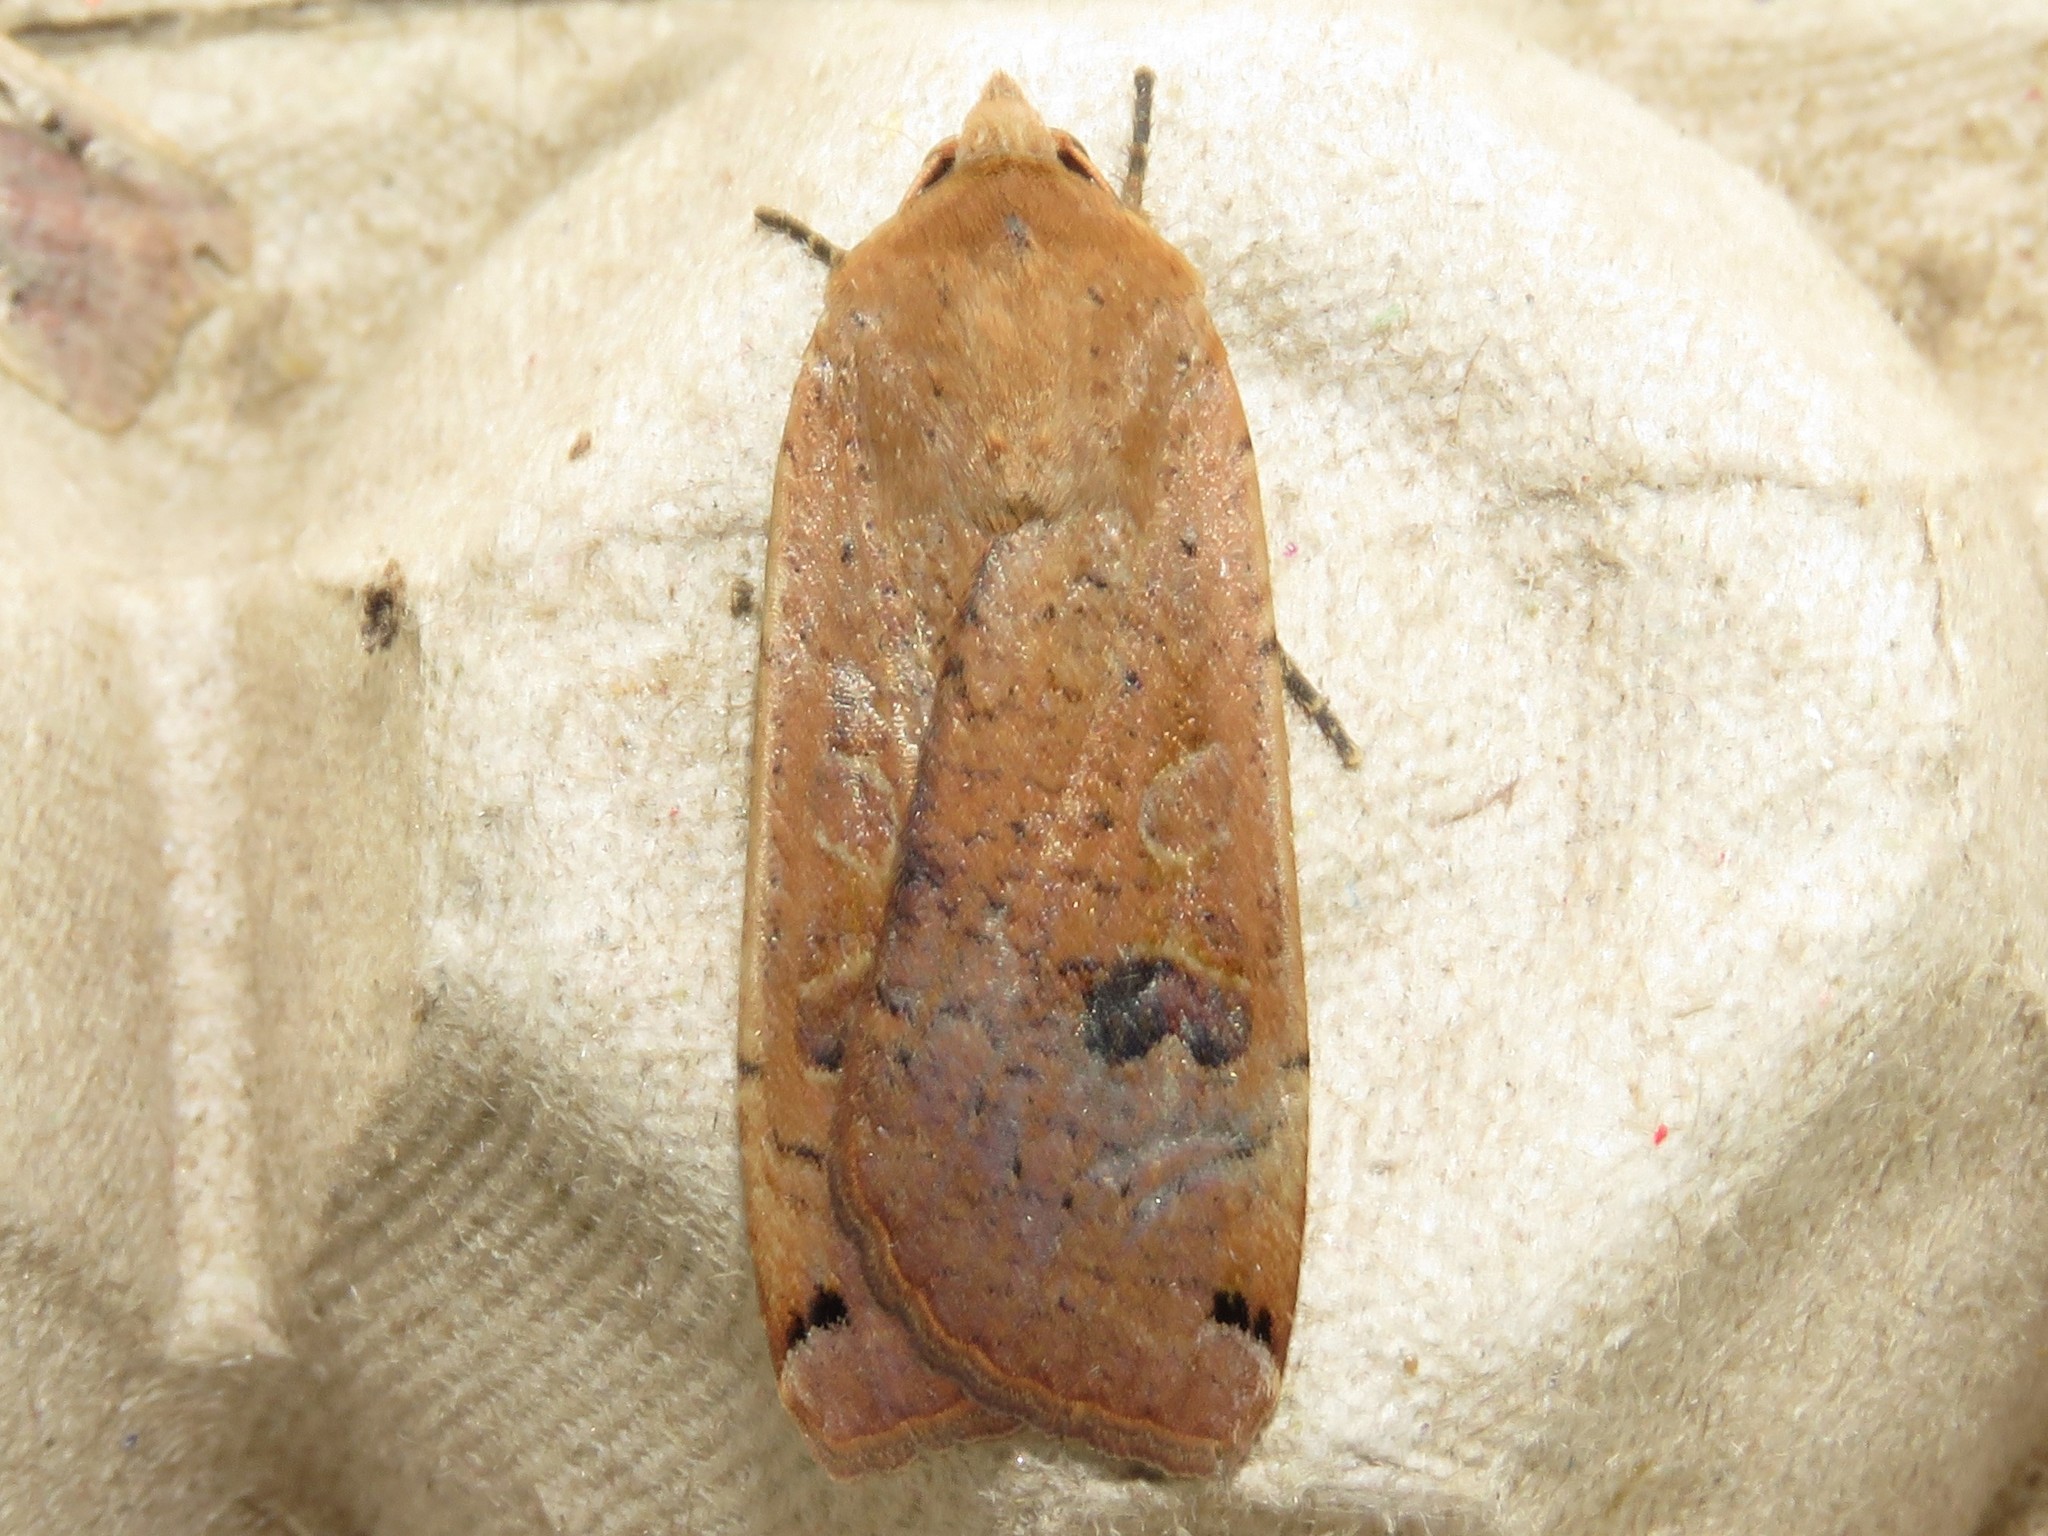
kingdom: Animalia
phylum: Arthropoda
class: Insecta
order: Lepidoptera
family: Noctuidae
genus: Noctua
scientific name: Noctua pronuba
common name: Large yellow underwing
